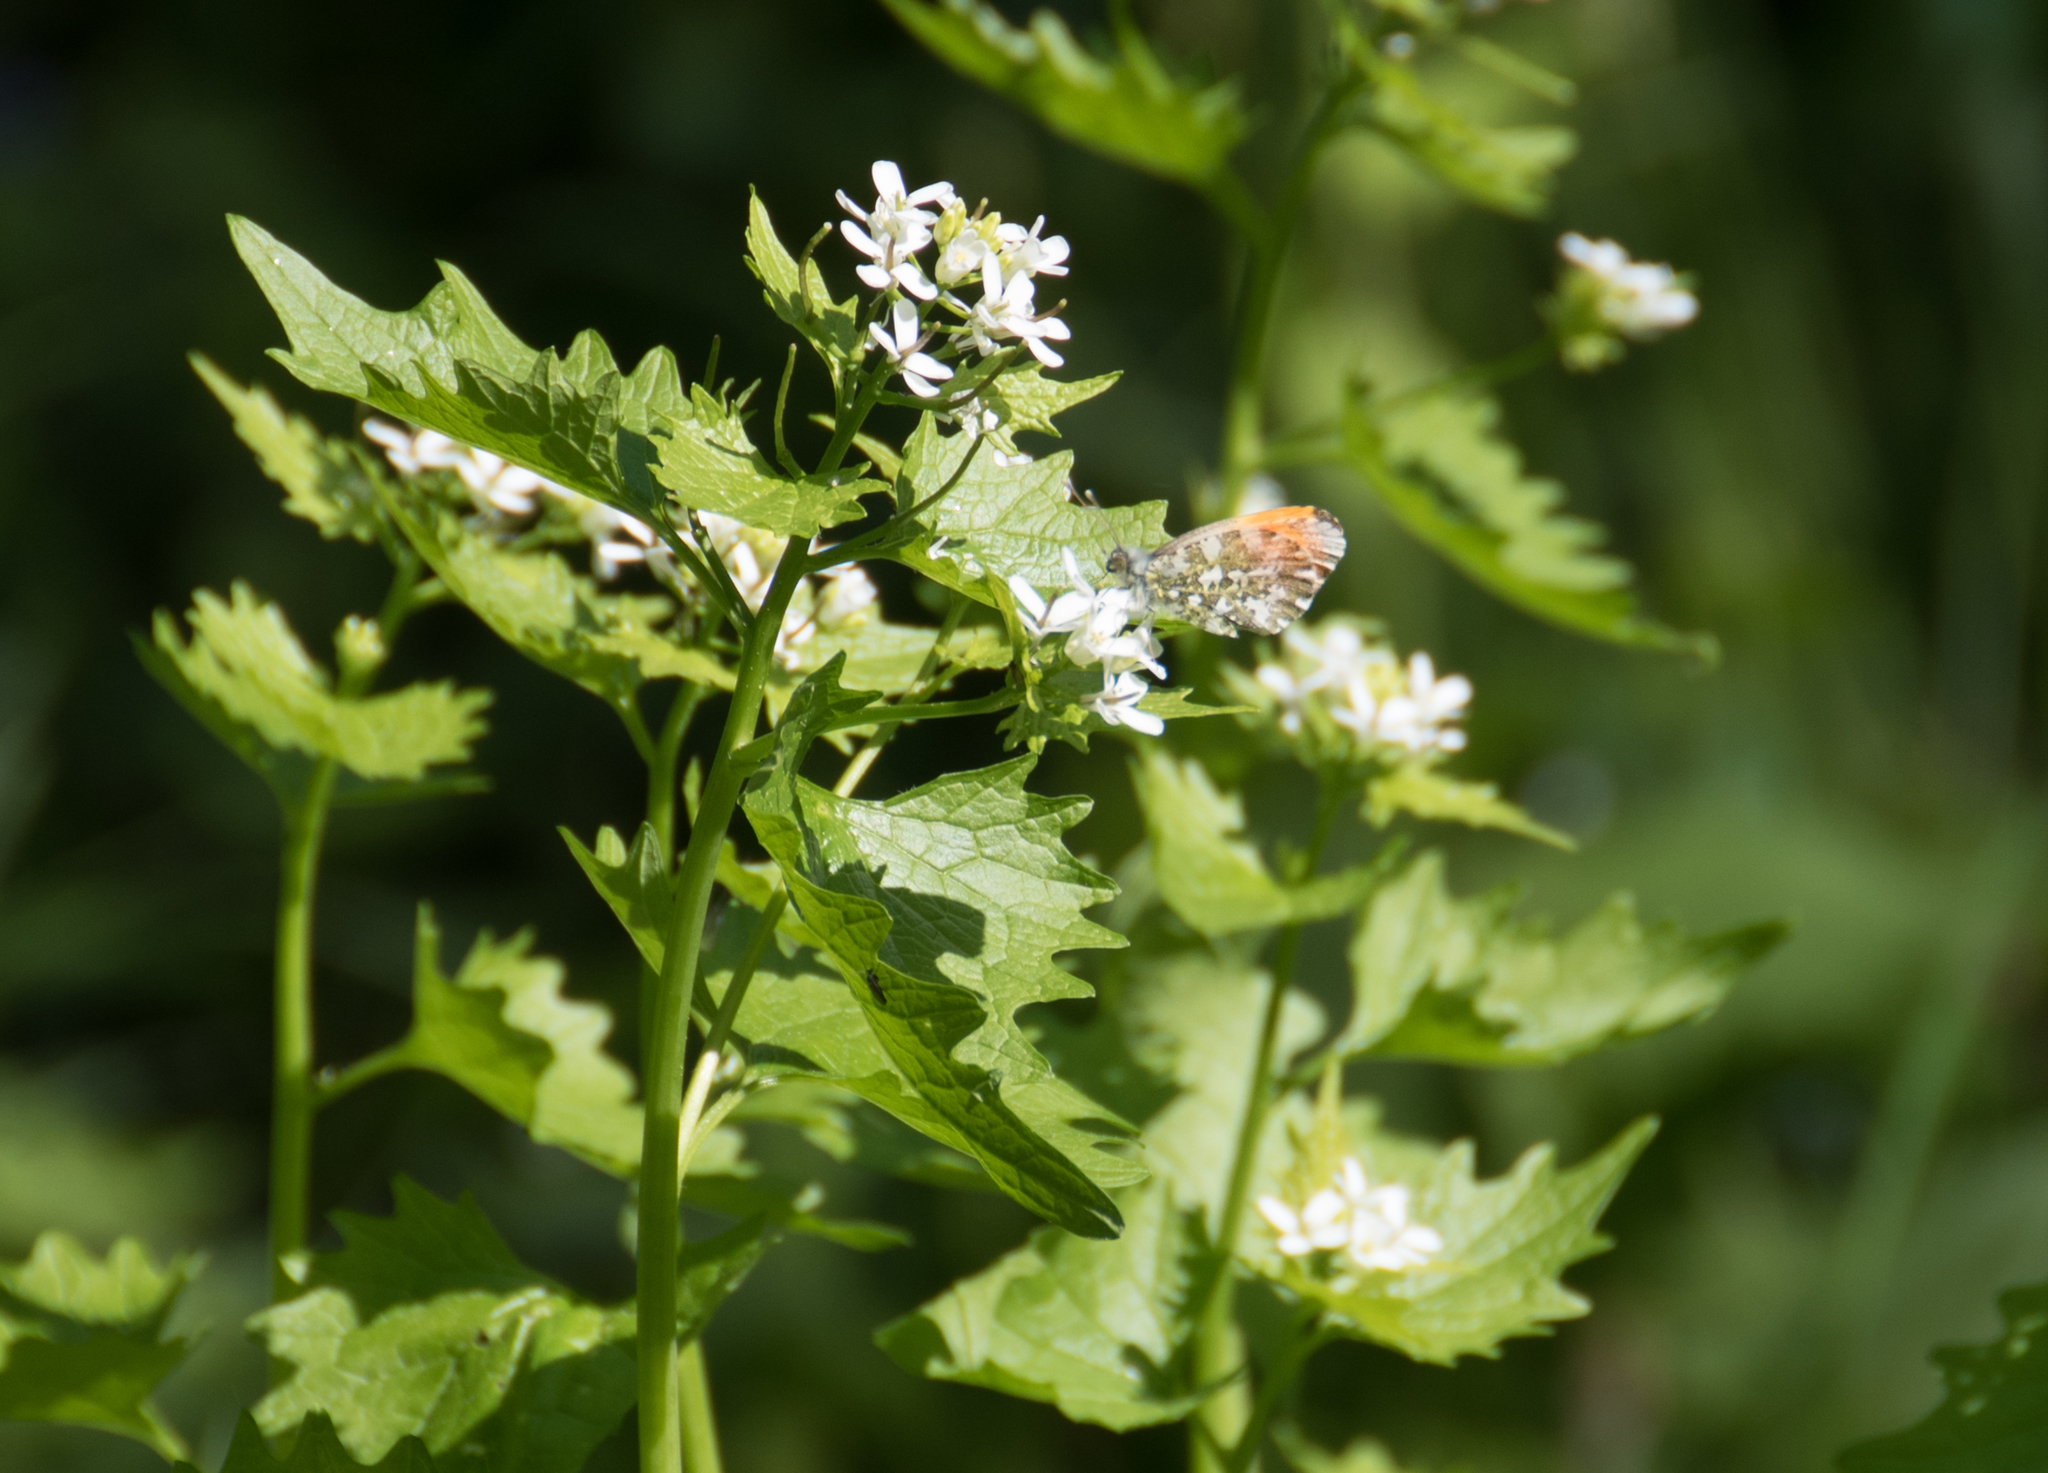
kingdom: Animalia
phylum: Arthropoda
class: Insecta
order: Lepidoptera
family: Pieridae
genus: Anthocharis
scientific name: Anthocharis cardamines
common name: Orange-tip
